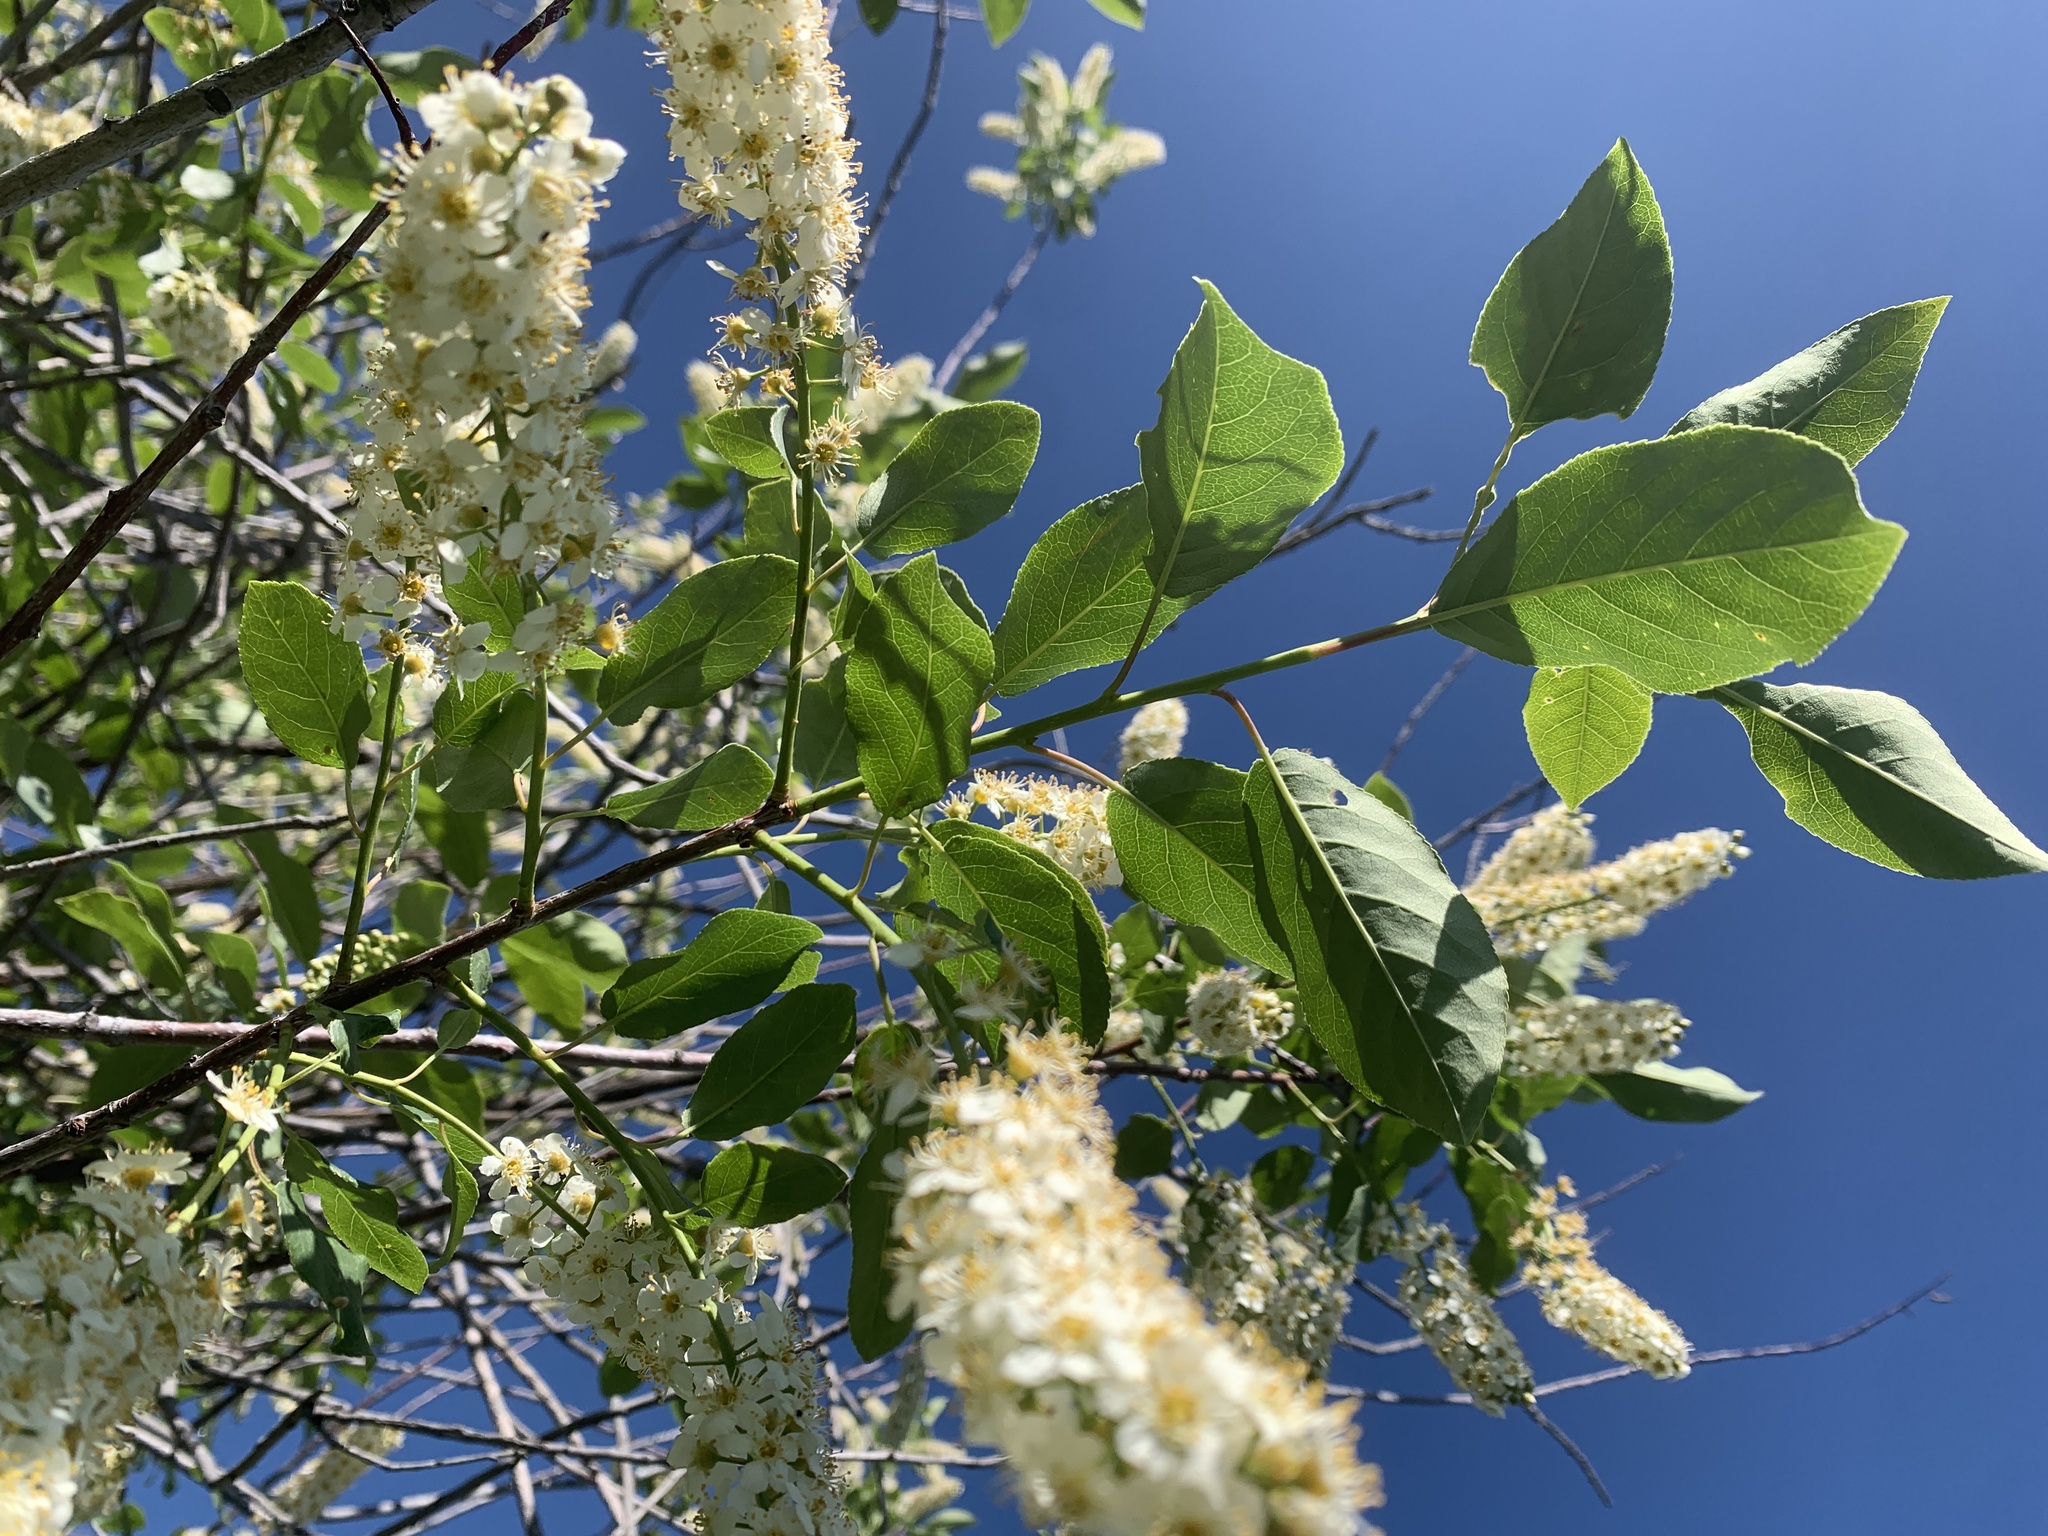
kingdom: Plantae
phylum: Tracheophyta
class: Magnoliopsida
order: Rosales
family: Rosaceae
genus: Prunus
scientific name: Prunus virginiana
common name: Chokecherry
